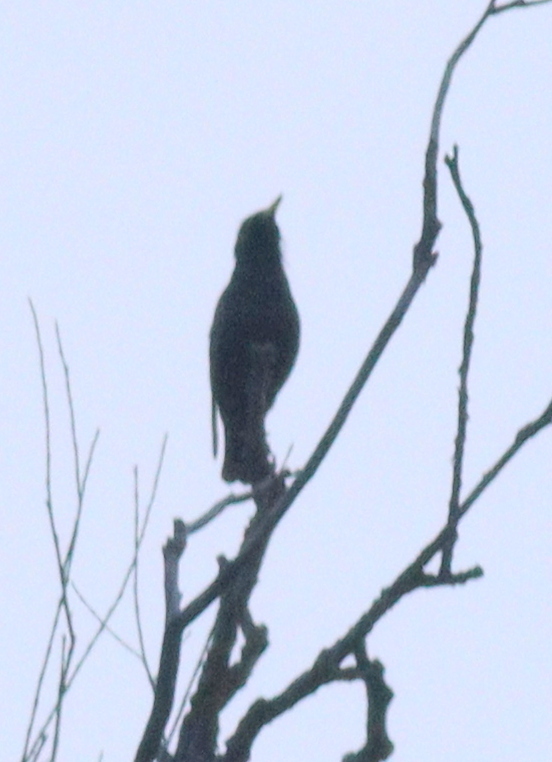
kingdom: Animalia
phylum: Chordata
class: Aves
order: Passeriformes
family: Sturnidae
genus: Sturnus
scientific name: Sturnus vulgaris
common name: Common starling
